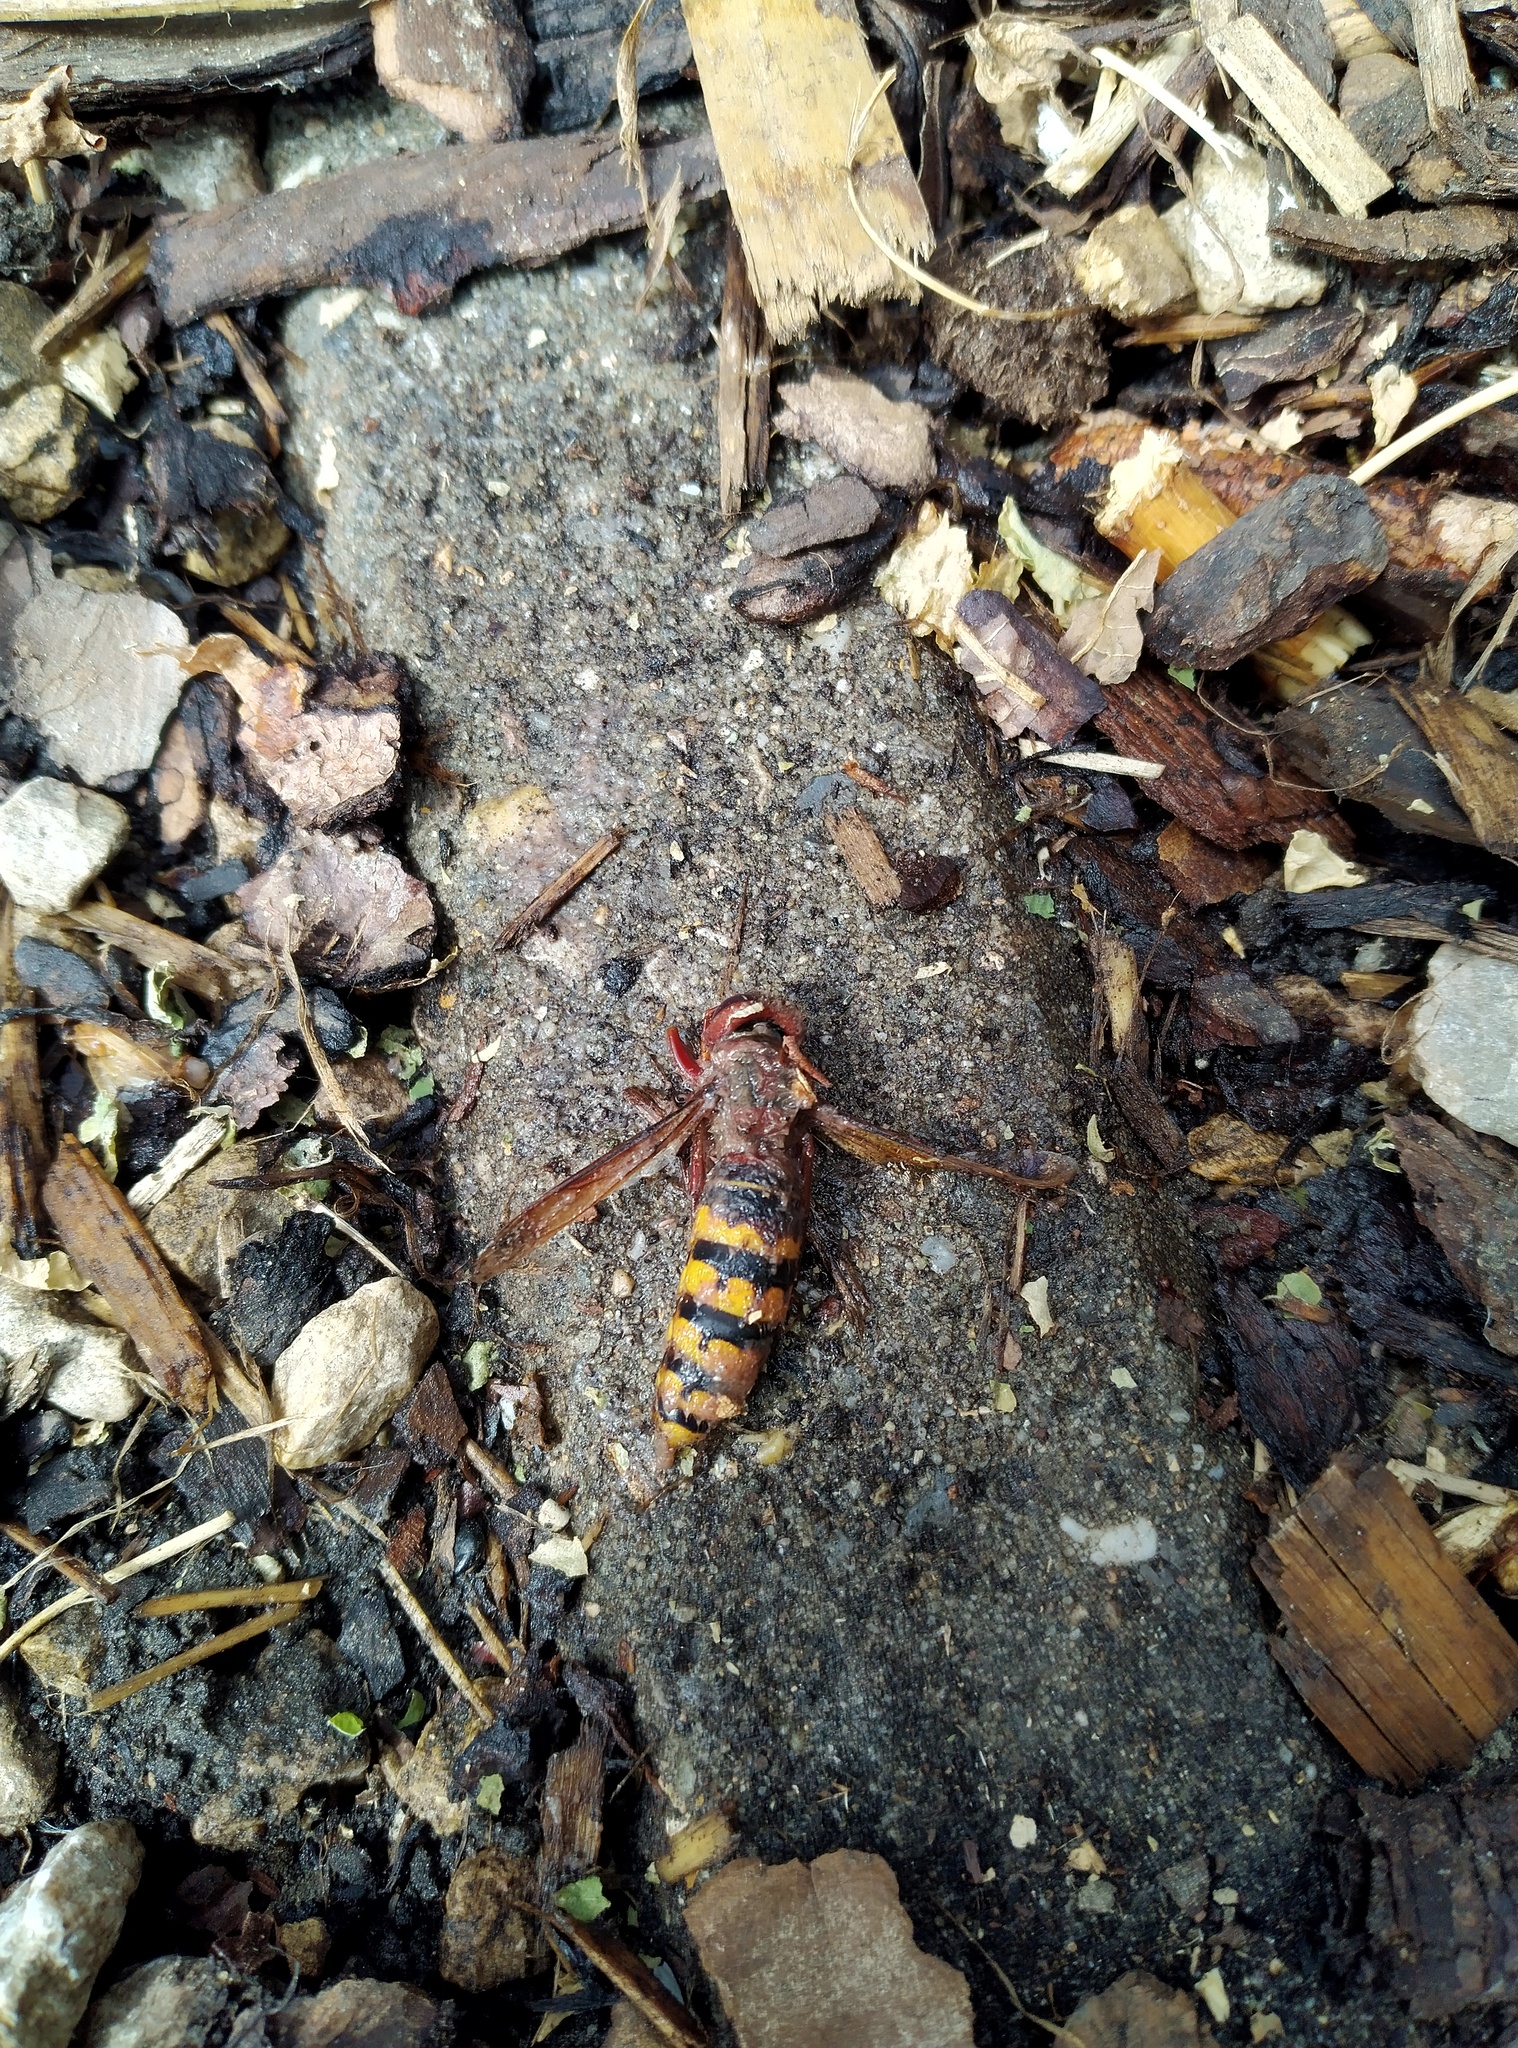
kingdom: Animalia
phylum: Arthropoda
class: Insecta
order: Hymenoptera
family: Vespidae
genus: Vespa
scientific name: Vespa crabro
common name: Hornet
